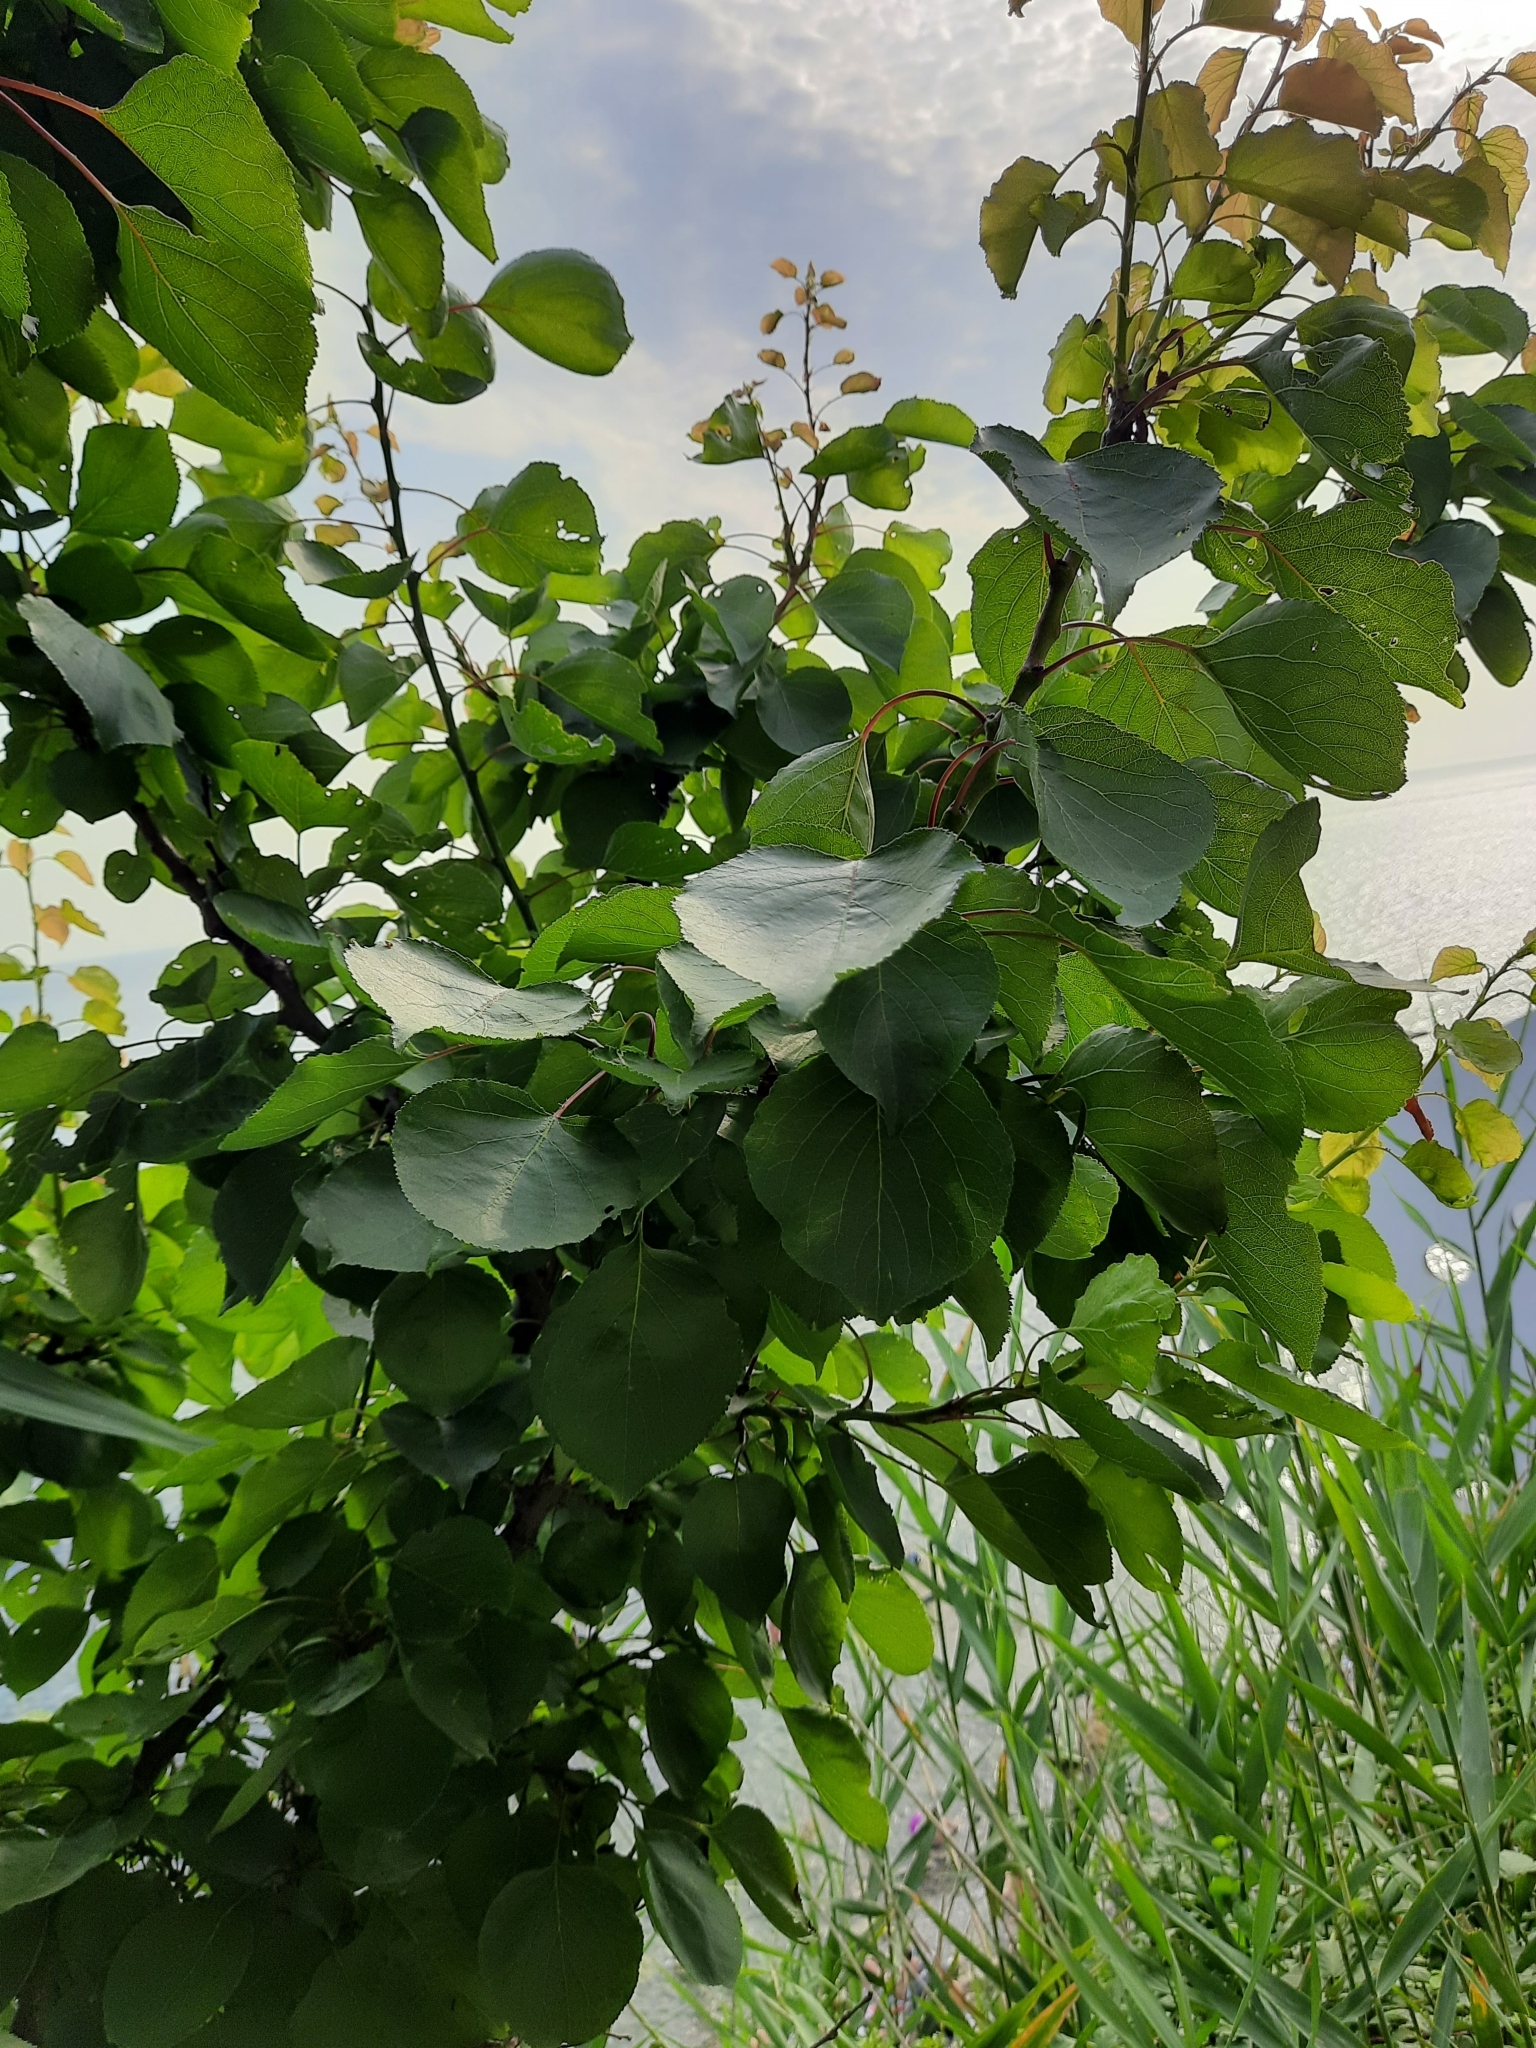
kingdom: Plantae
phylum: Tracheophyta
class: Magnoliopsida
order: Rosales
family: Rosaceae
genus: Prunus
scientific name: Prunus armeniaca
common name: Apricot
